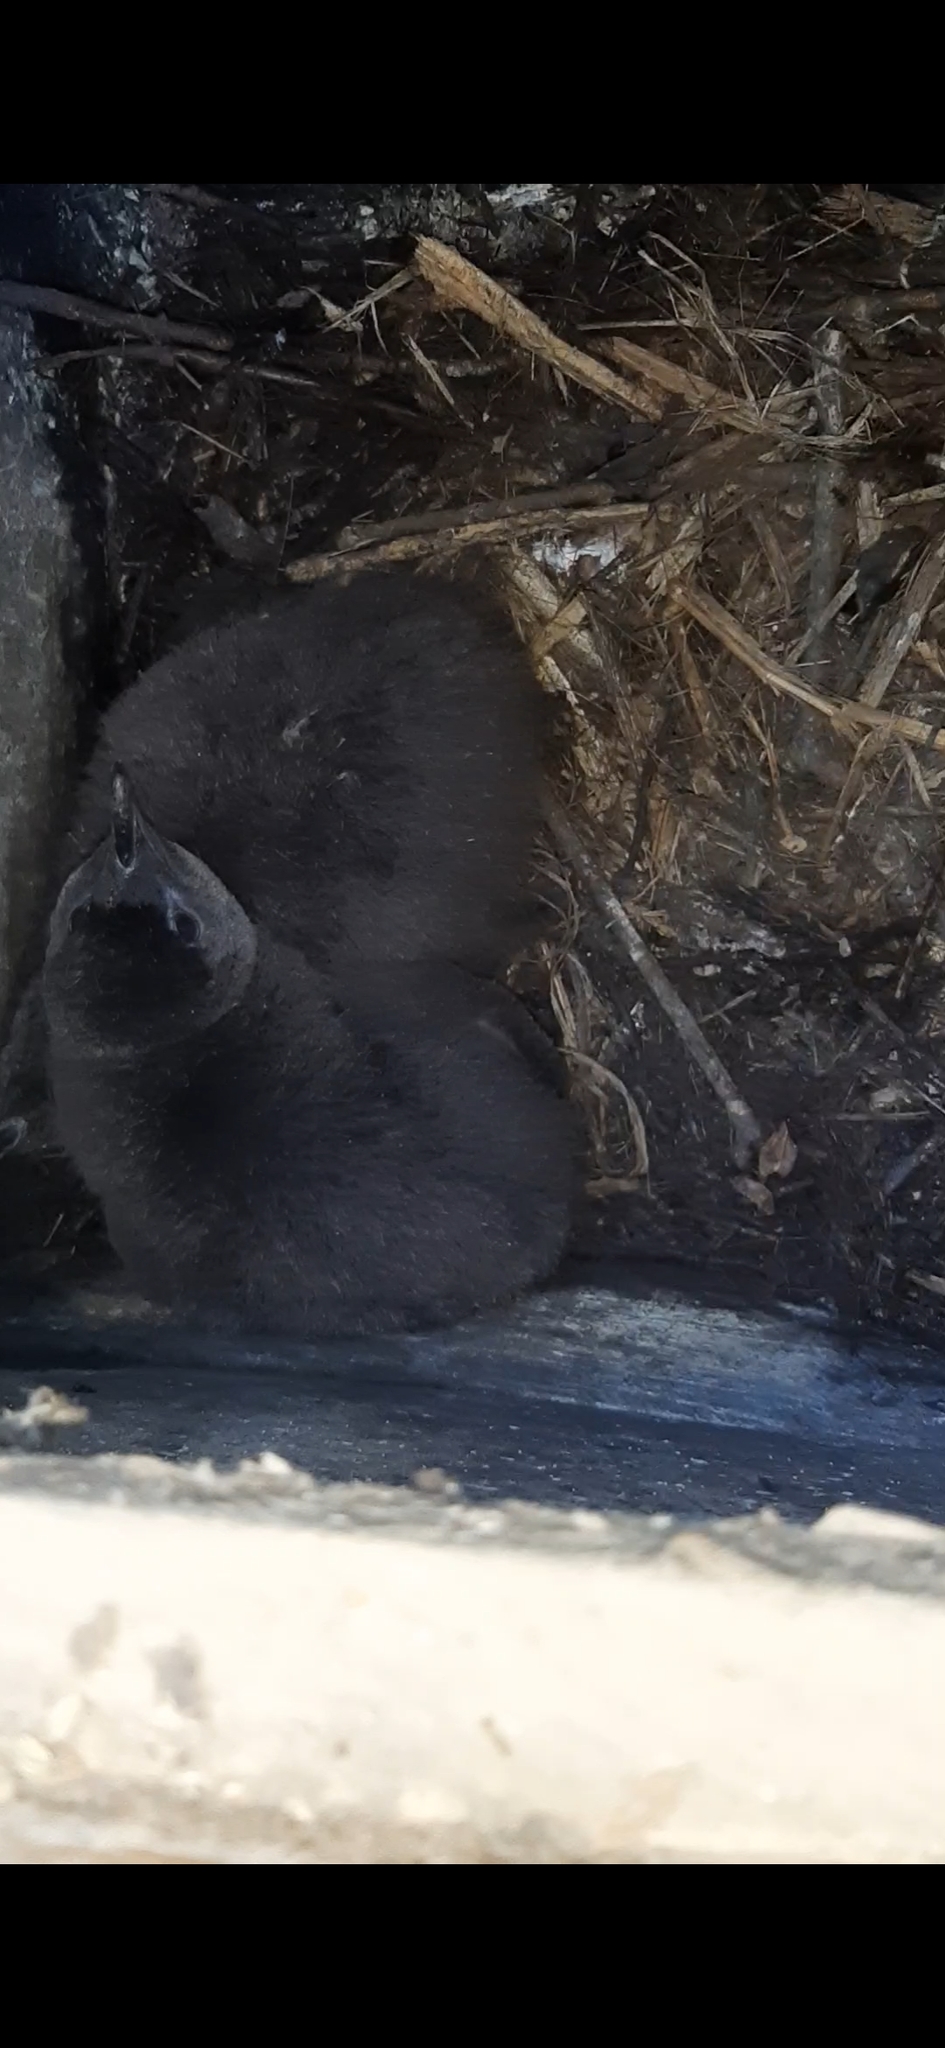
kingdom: Animalia
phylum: Chordata
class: Aves
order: Sphenisciformes
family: Spheniscidae
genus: Eudyptula
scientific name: Eudyptula minor
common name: Little penguin
